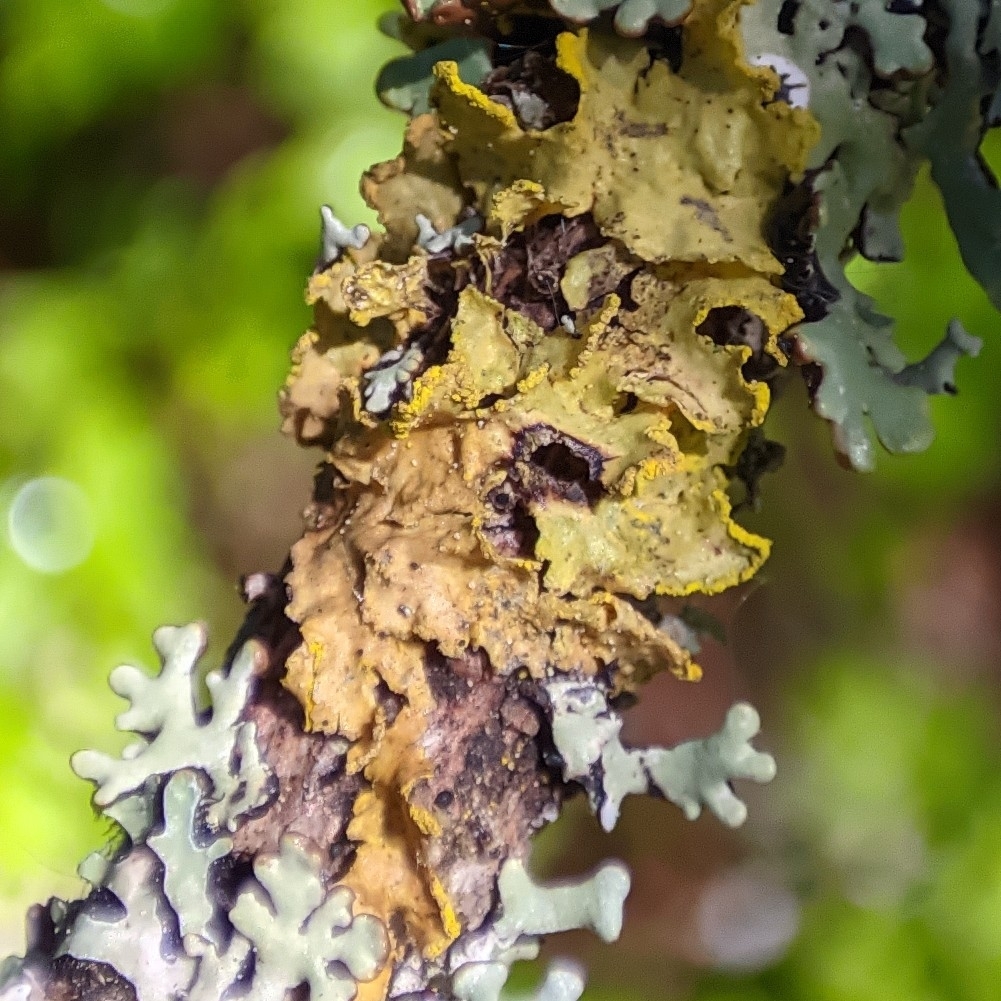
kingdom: Fungi
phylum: Ascomycota
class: Lecanoromycetes
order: Lecanorales
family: Parmeliaceae
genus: Vulpicida
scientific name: Vulpicida pinastri
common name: Powdered sunshine lichen
